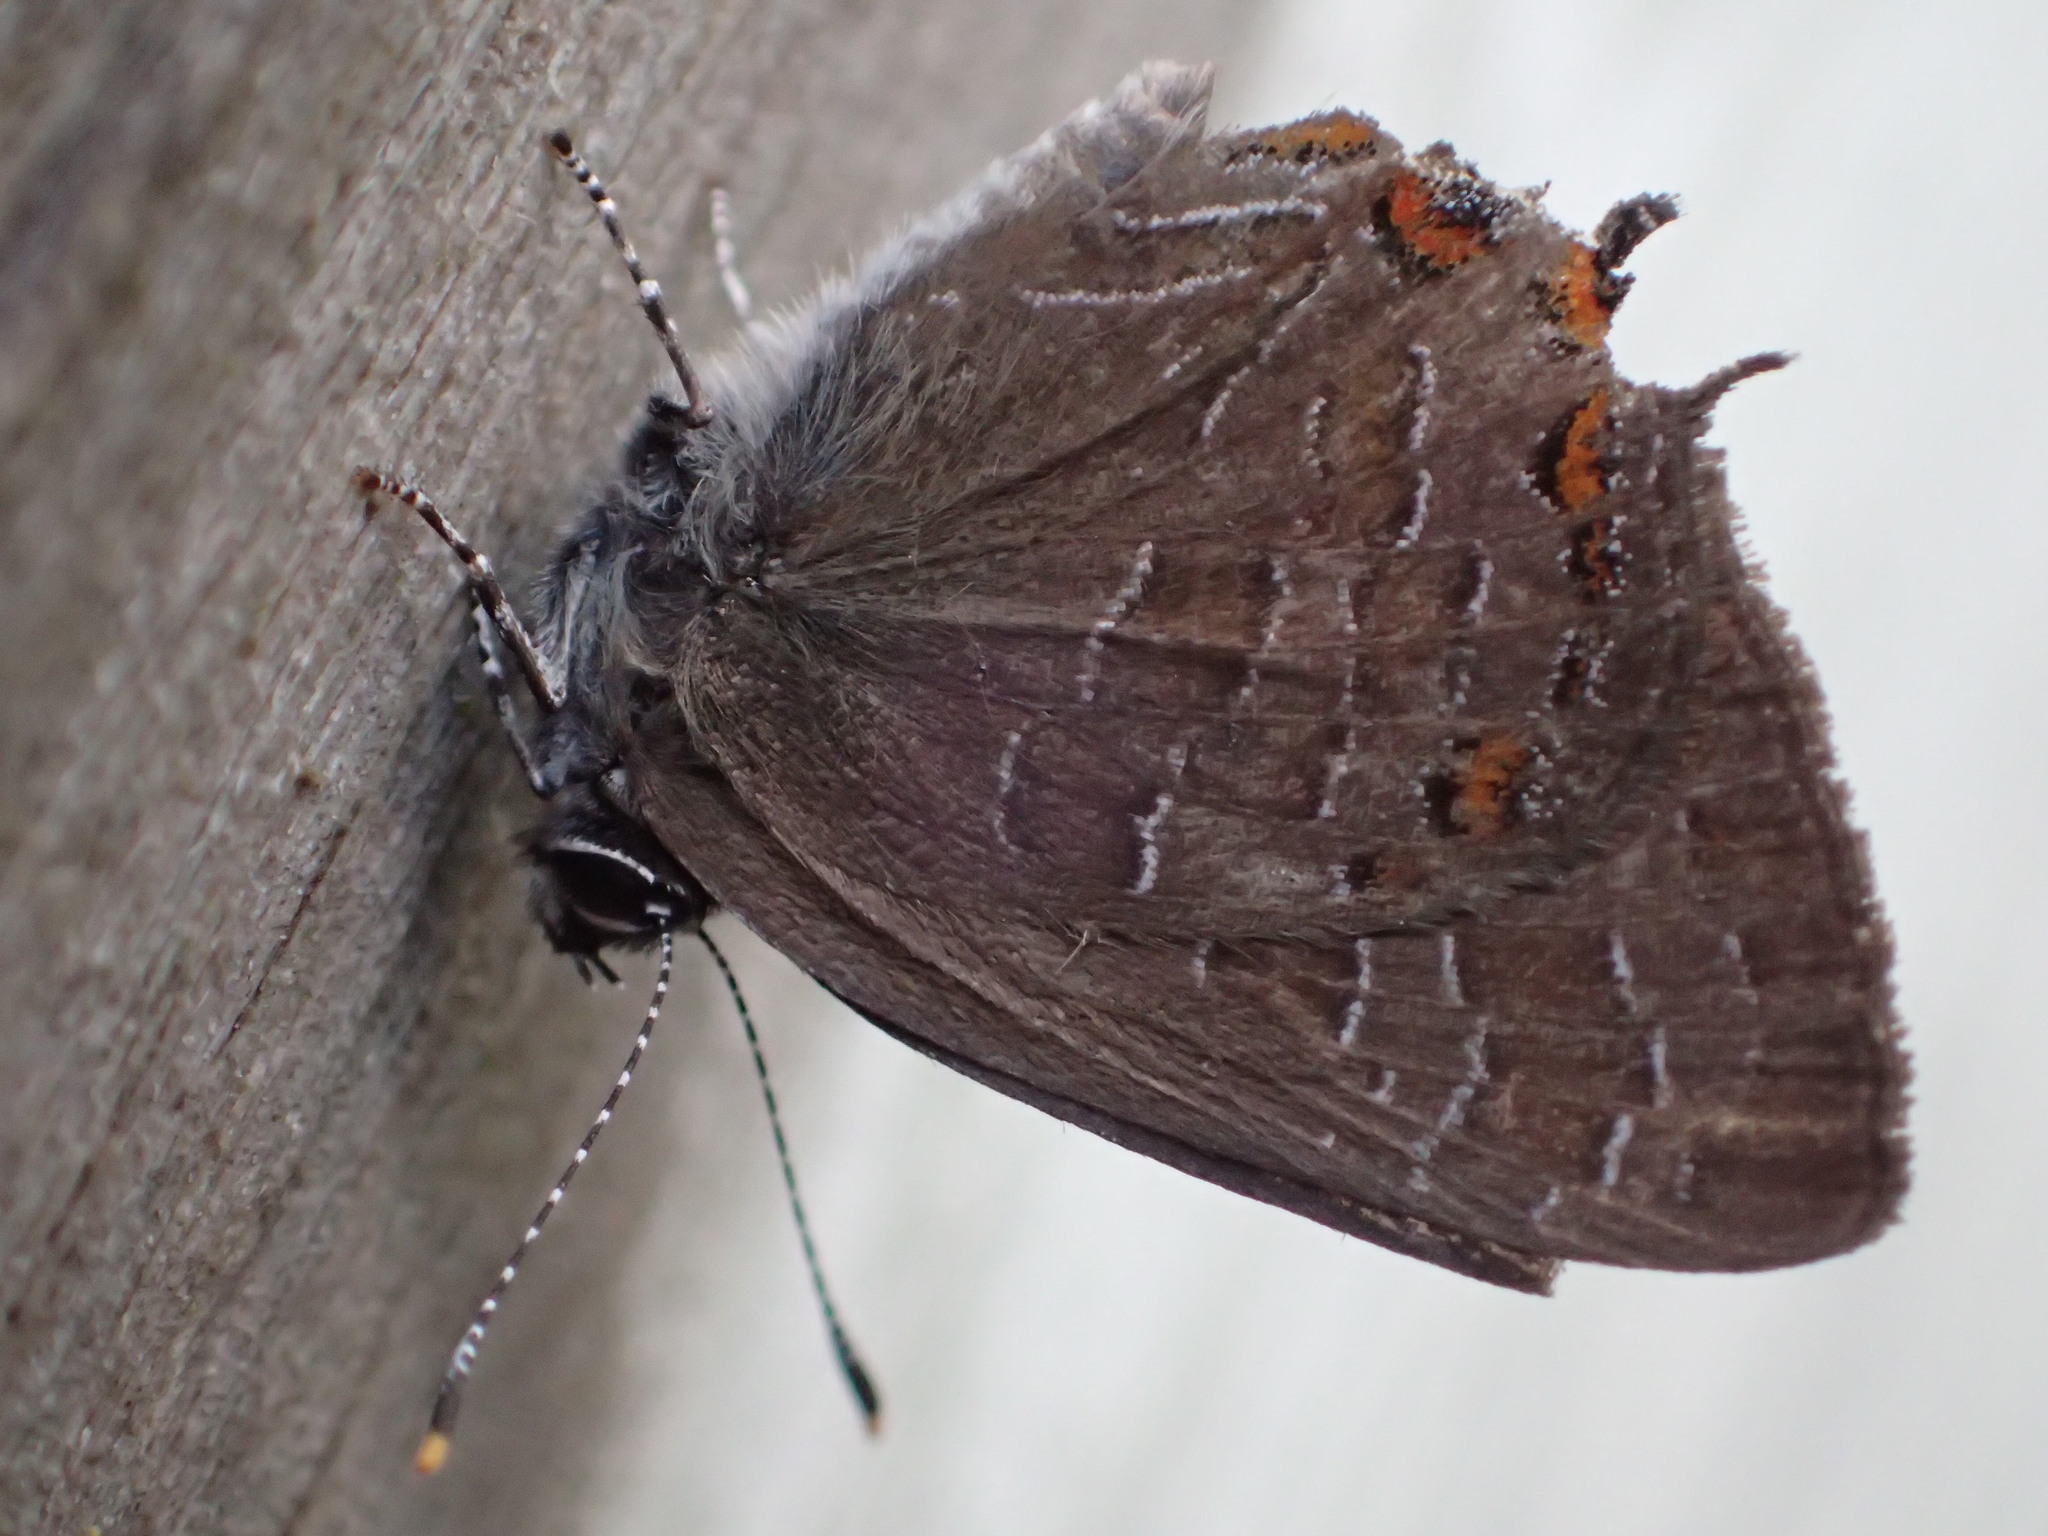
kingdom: Animalia
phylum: Arthropoda
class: Insecta
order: Lepidoptera
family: Lycaenidae
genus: Satyrium
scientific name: Satyrium liparops
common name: Striped hairstreak
